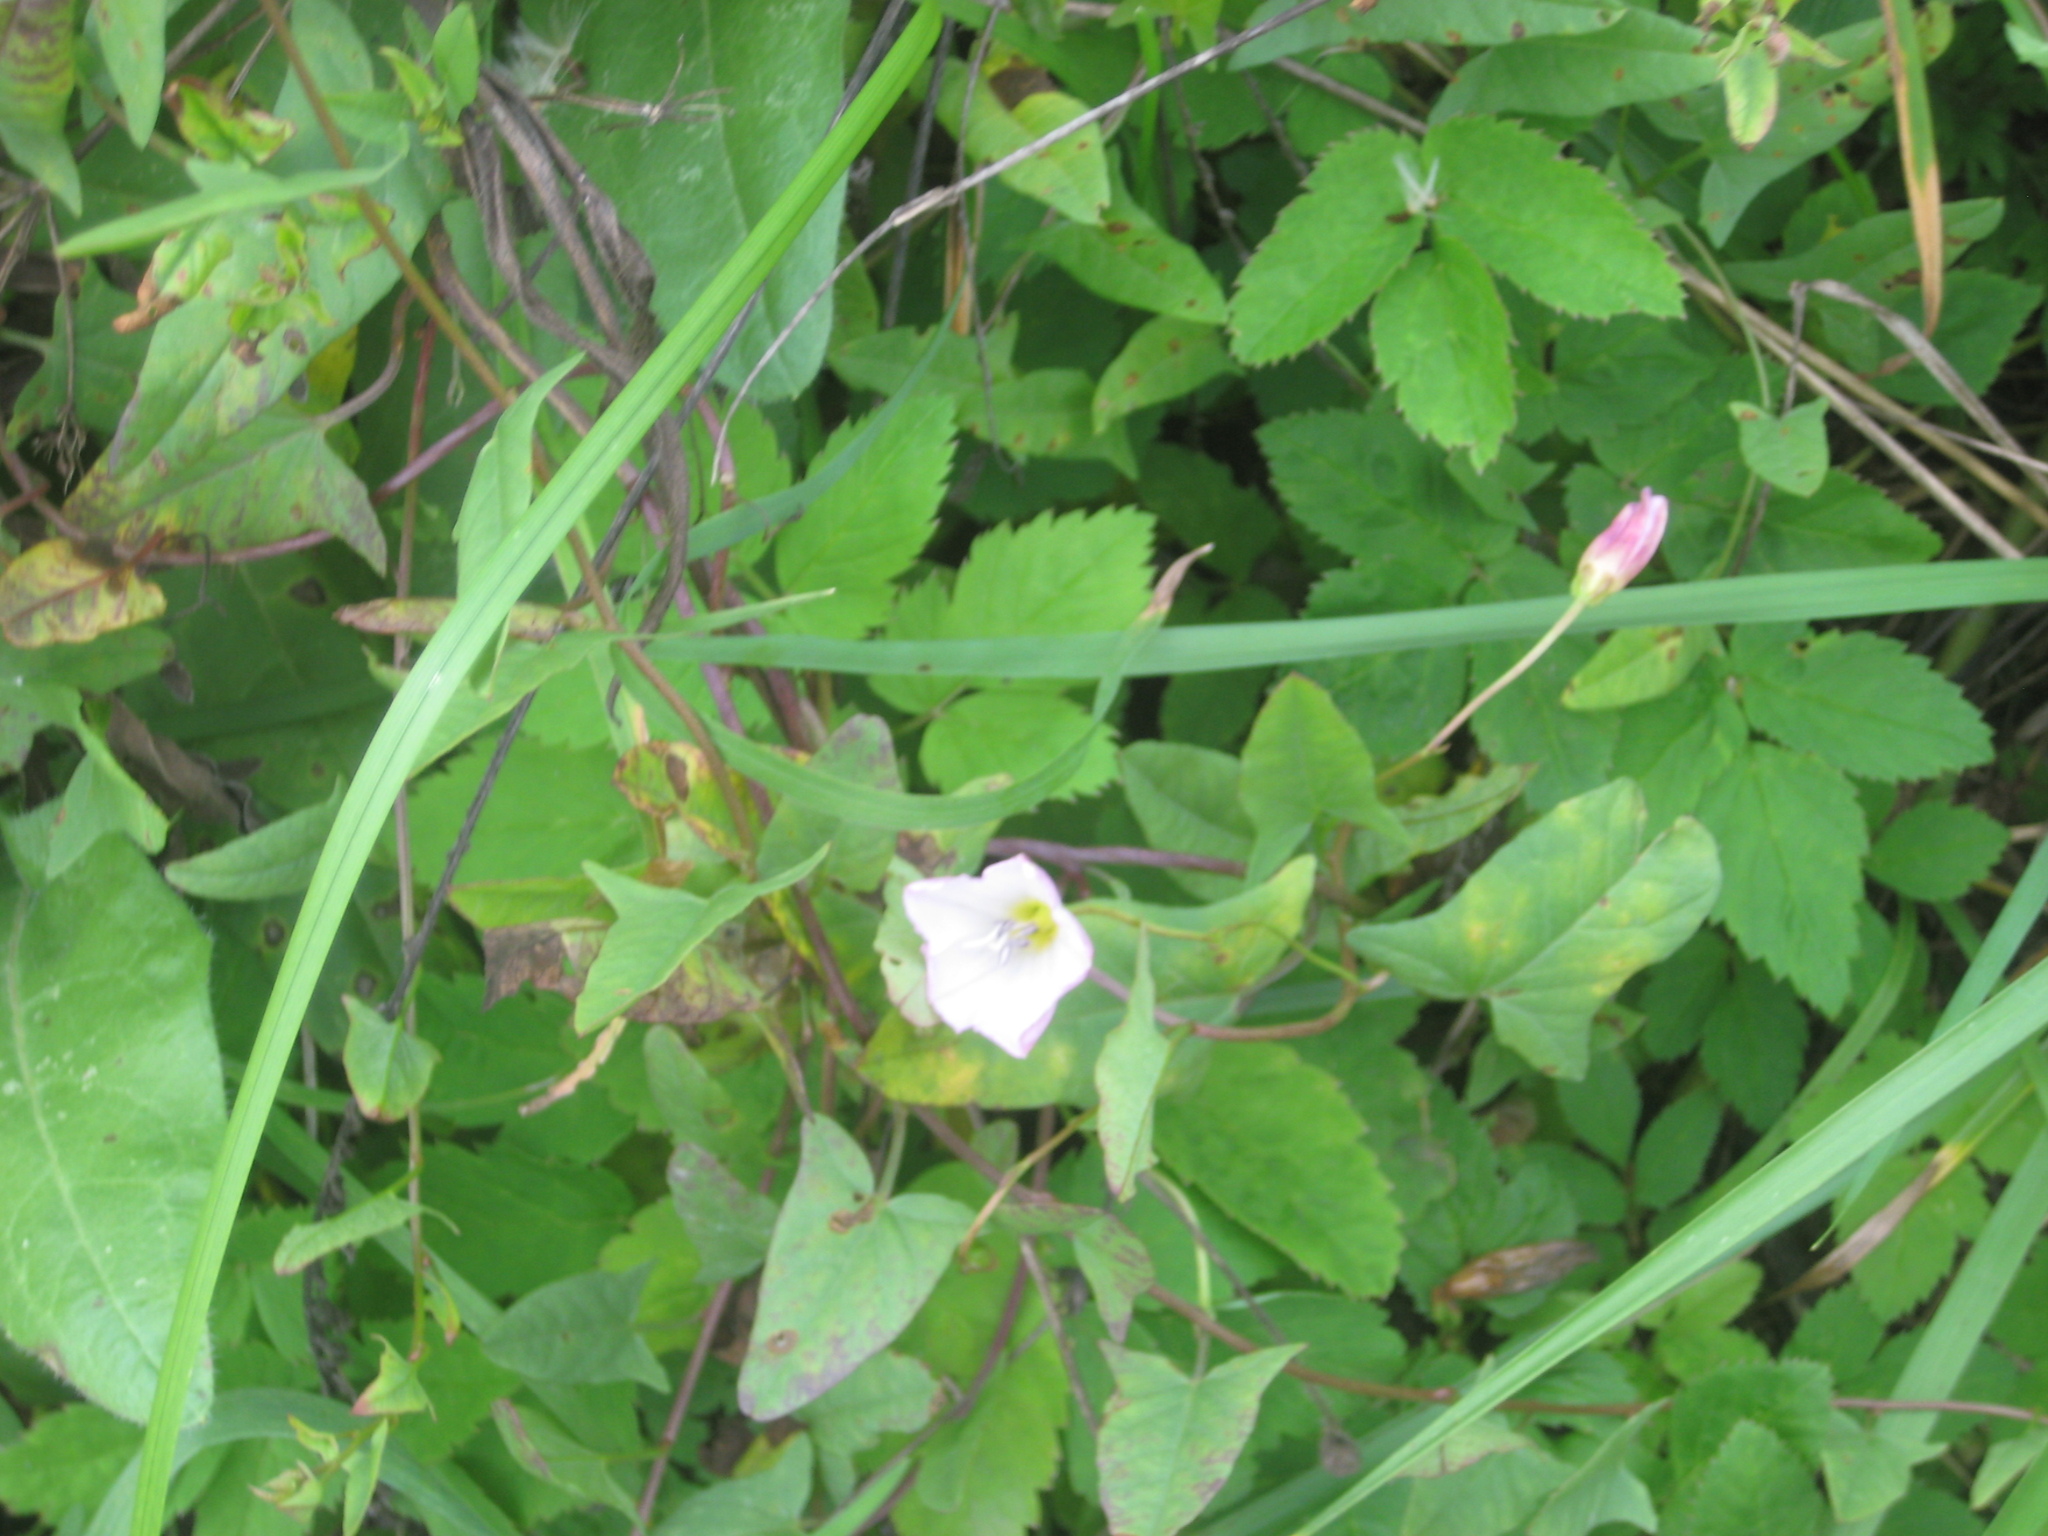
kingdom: Plantae
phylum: Tracheophyta
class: Magnoliopsida
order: Solanales
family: Convolvulaceae
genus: Convolvulus
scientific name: Convolvulus arvensis
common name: Field bindweed
